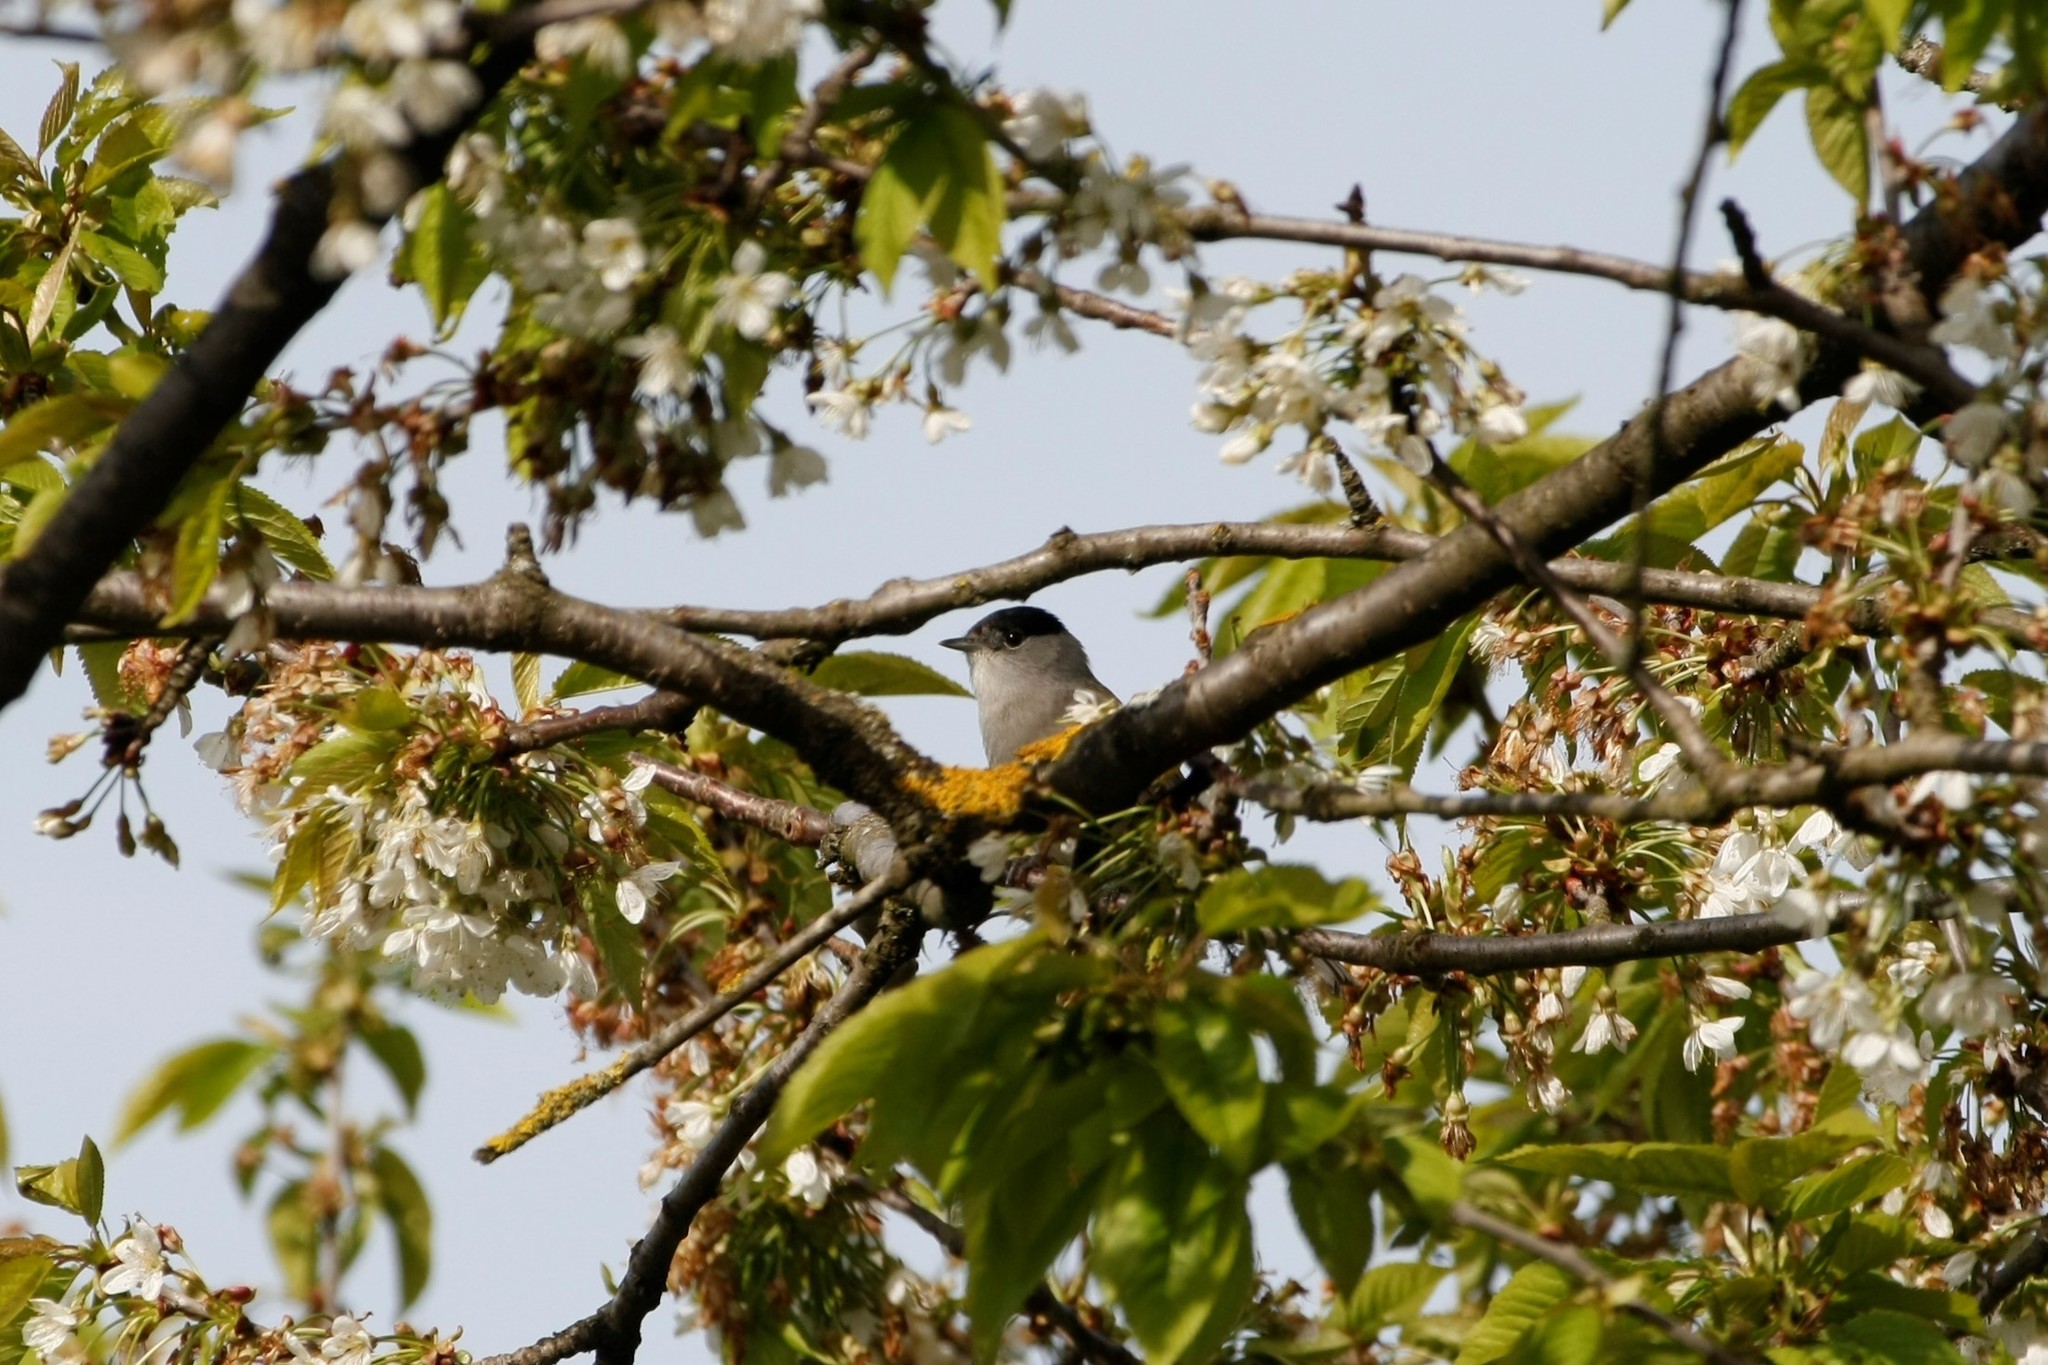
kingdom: Animalia
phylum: Chordata
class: Aves
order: Passeriformes
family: Sylviidae
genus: Sylvia
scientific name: Sylvia atricapilla
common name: Eurasian blackcap
